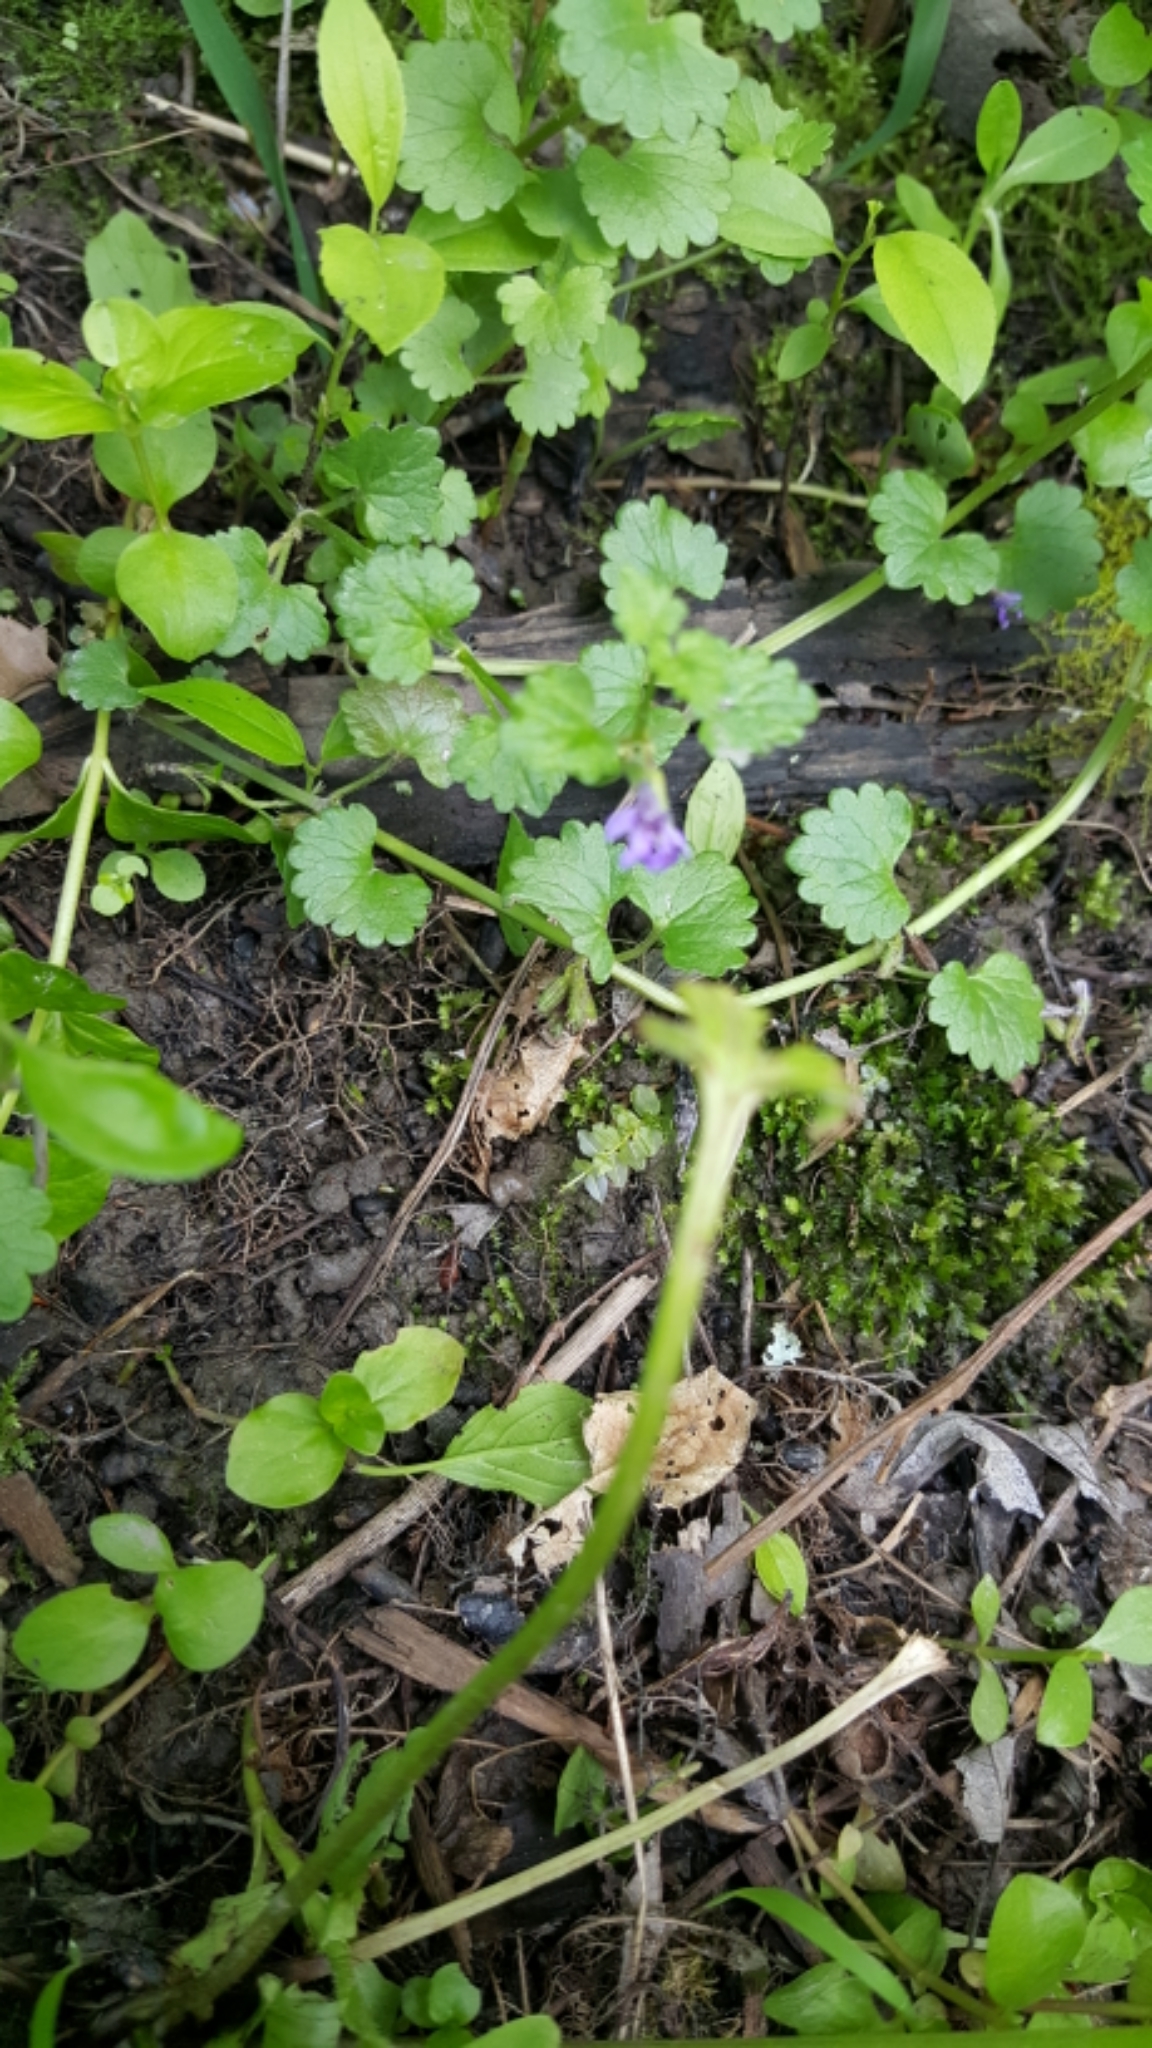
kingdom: Plantae
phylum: Tracheophyta
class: Magnoliopsida
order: Lamiales
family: Lamiaceae
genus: Glechoma
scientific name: Glechoma hederacea
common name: Ground ivy
